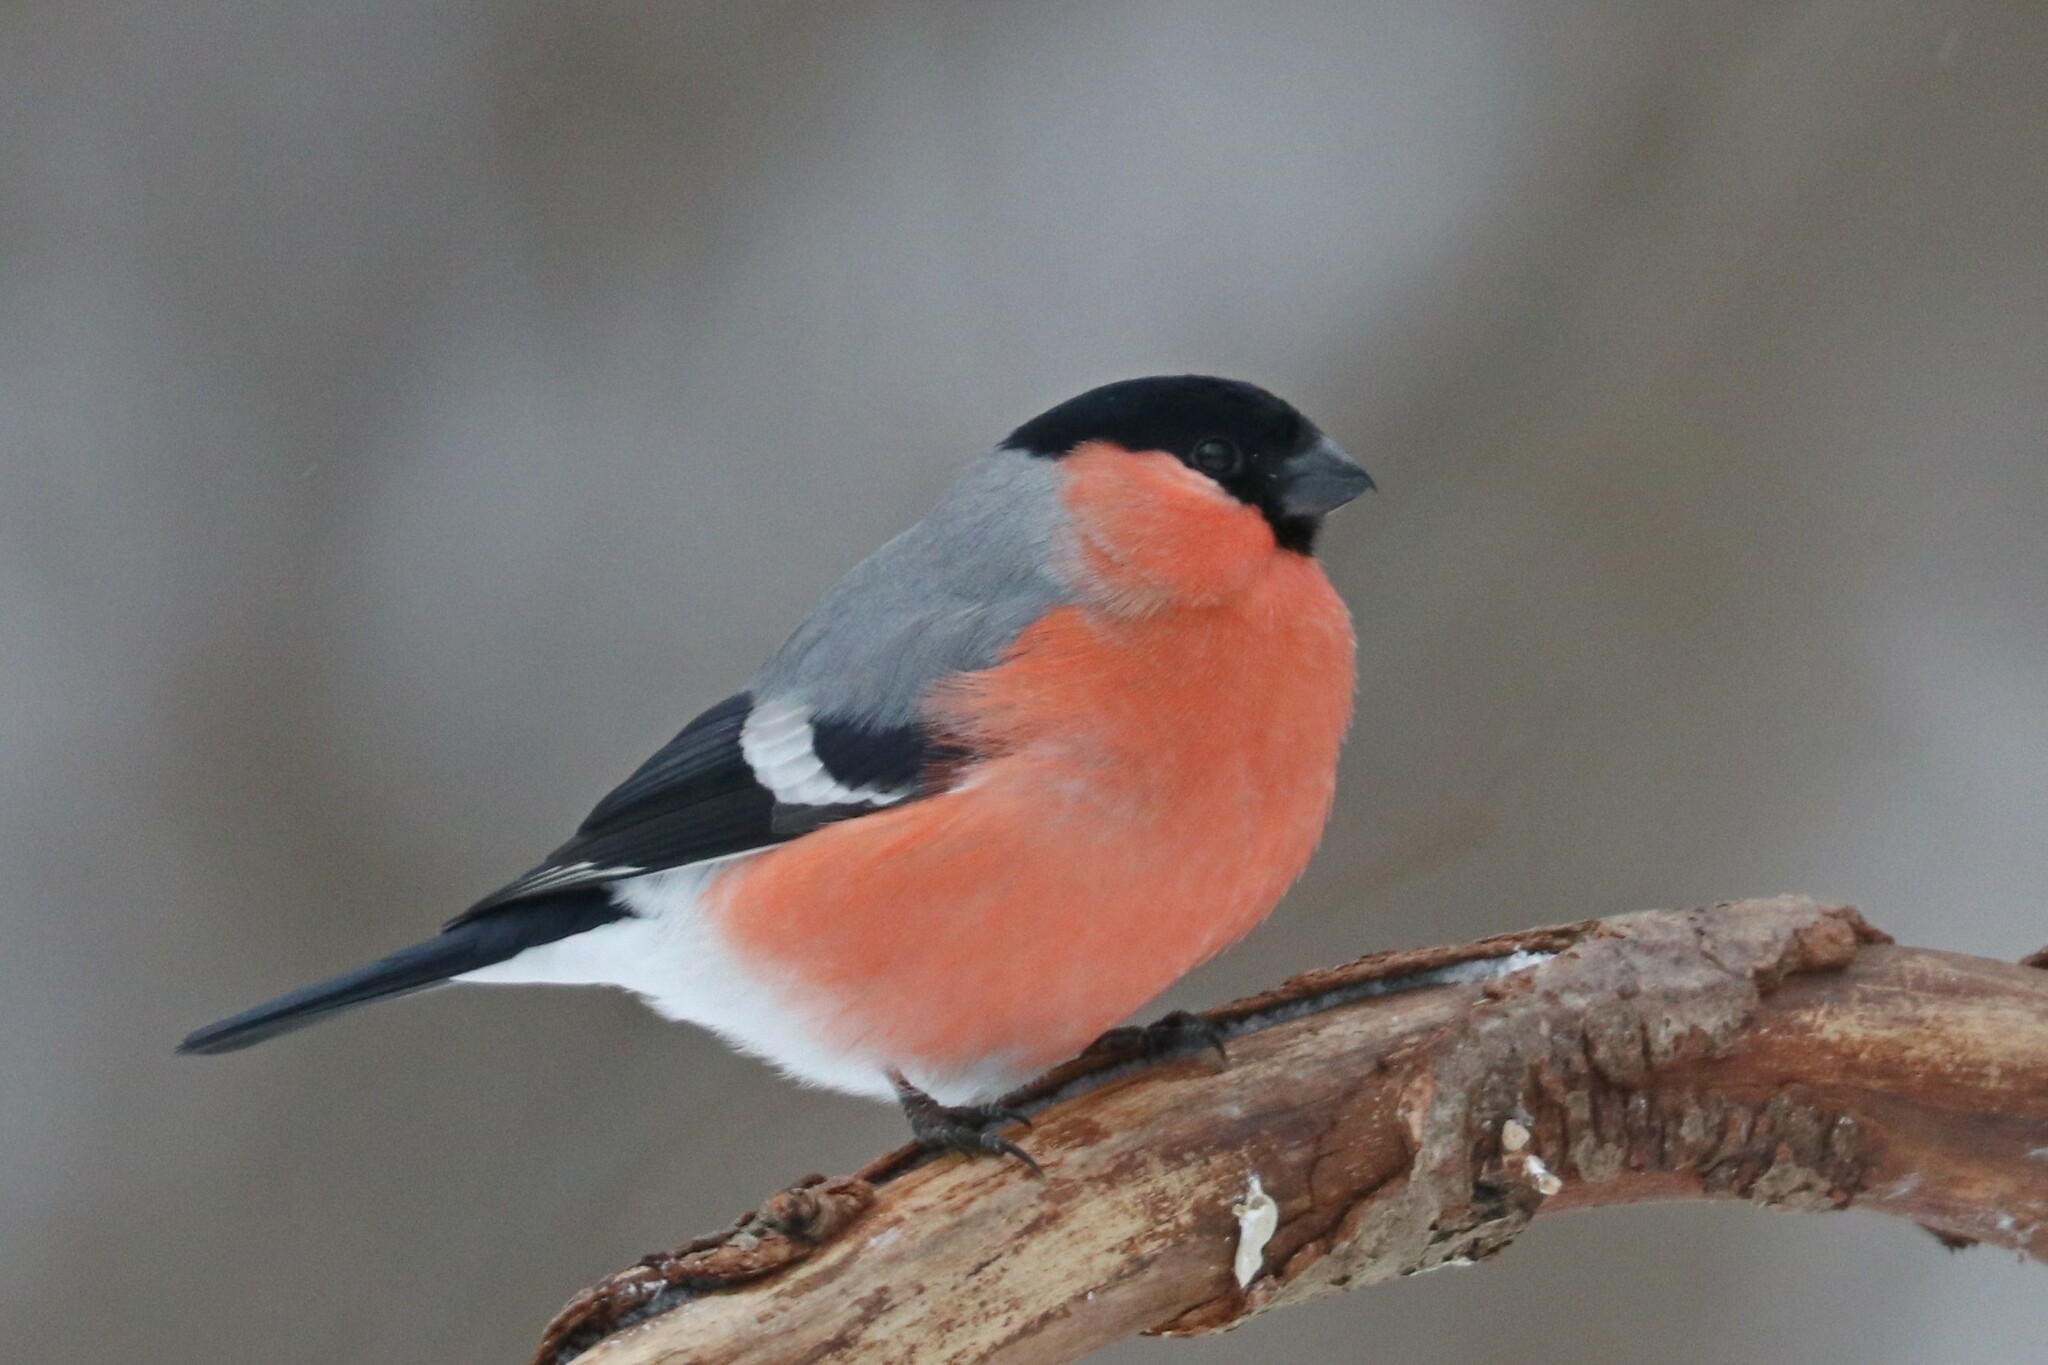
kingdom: Animalia
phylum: Chordata
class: Aves
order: Passeriformes
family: Fringillidae
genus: Pyrrhula
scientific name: Pyrrhula pyrrhula
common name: Eurasian bullfinch
